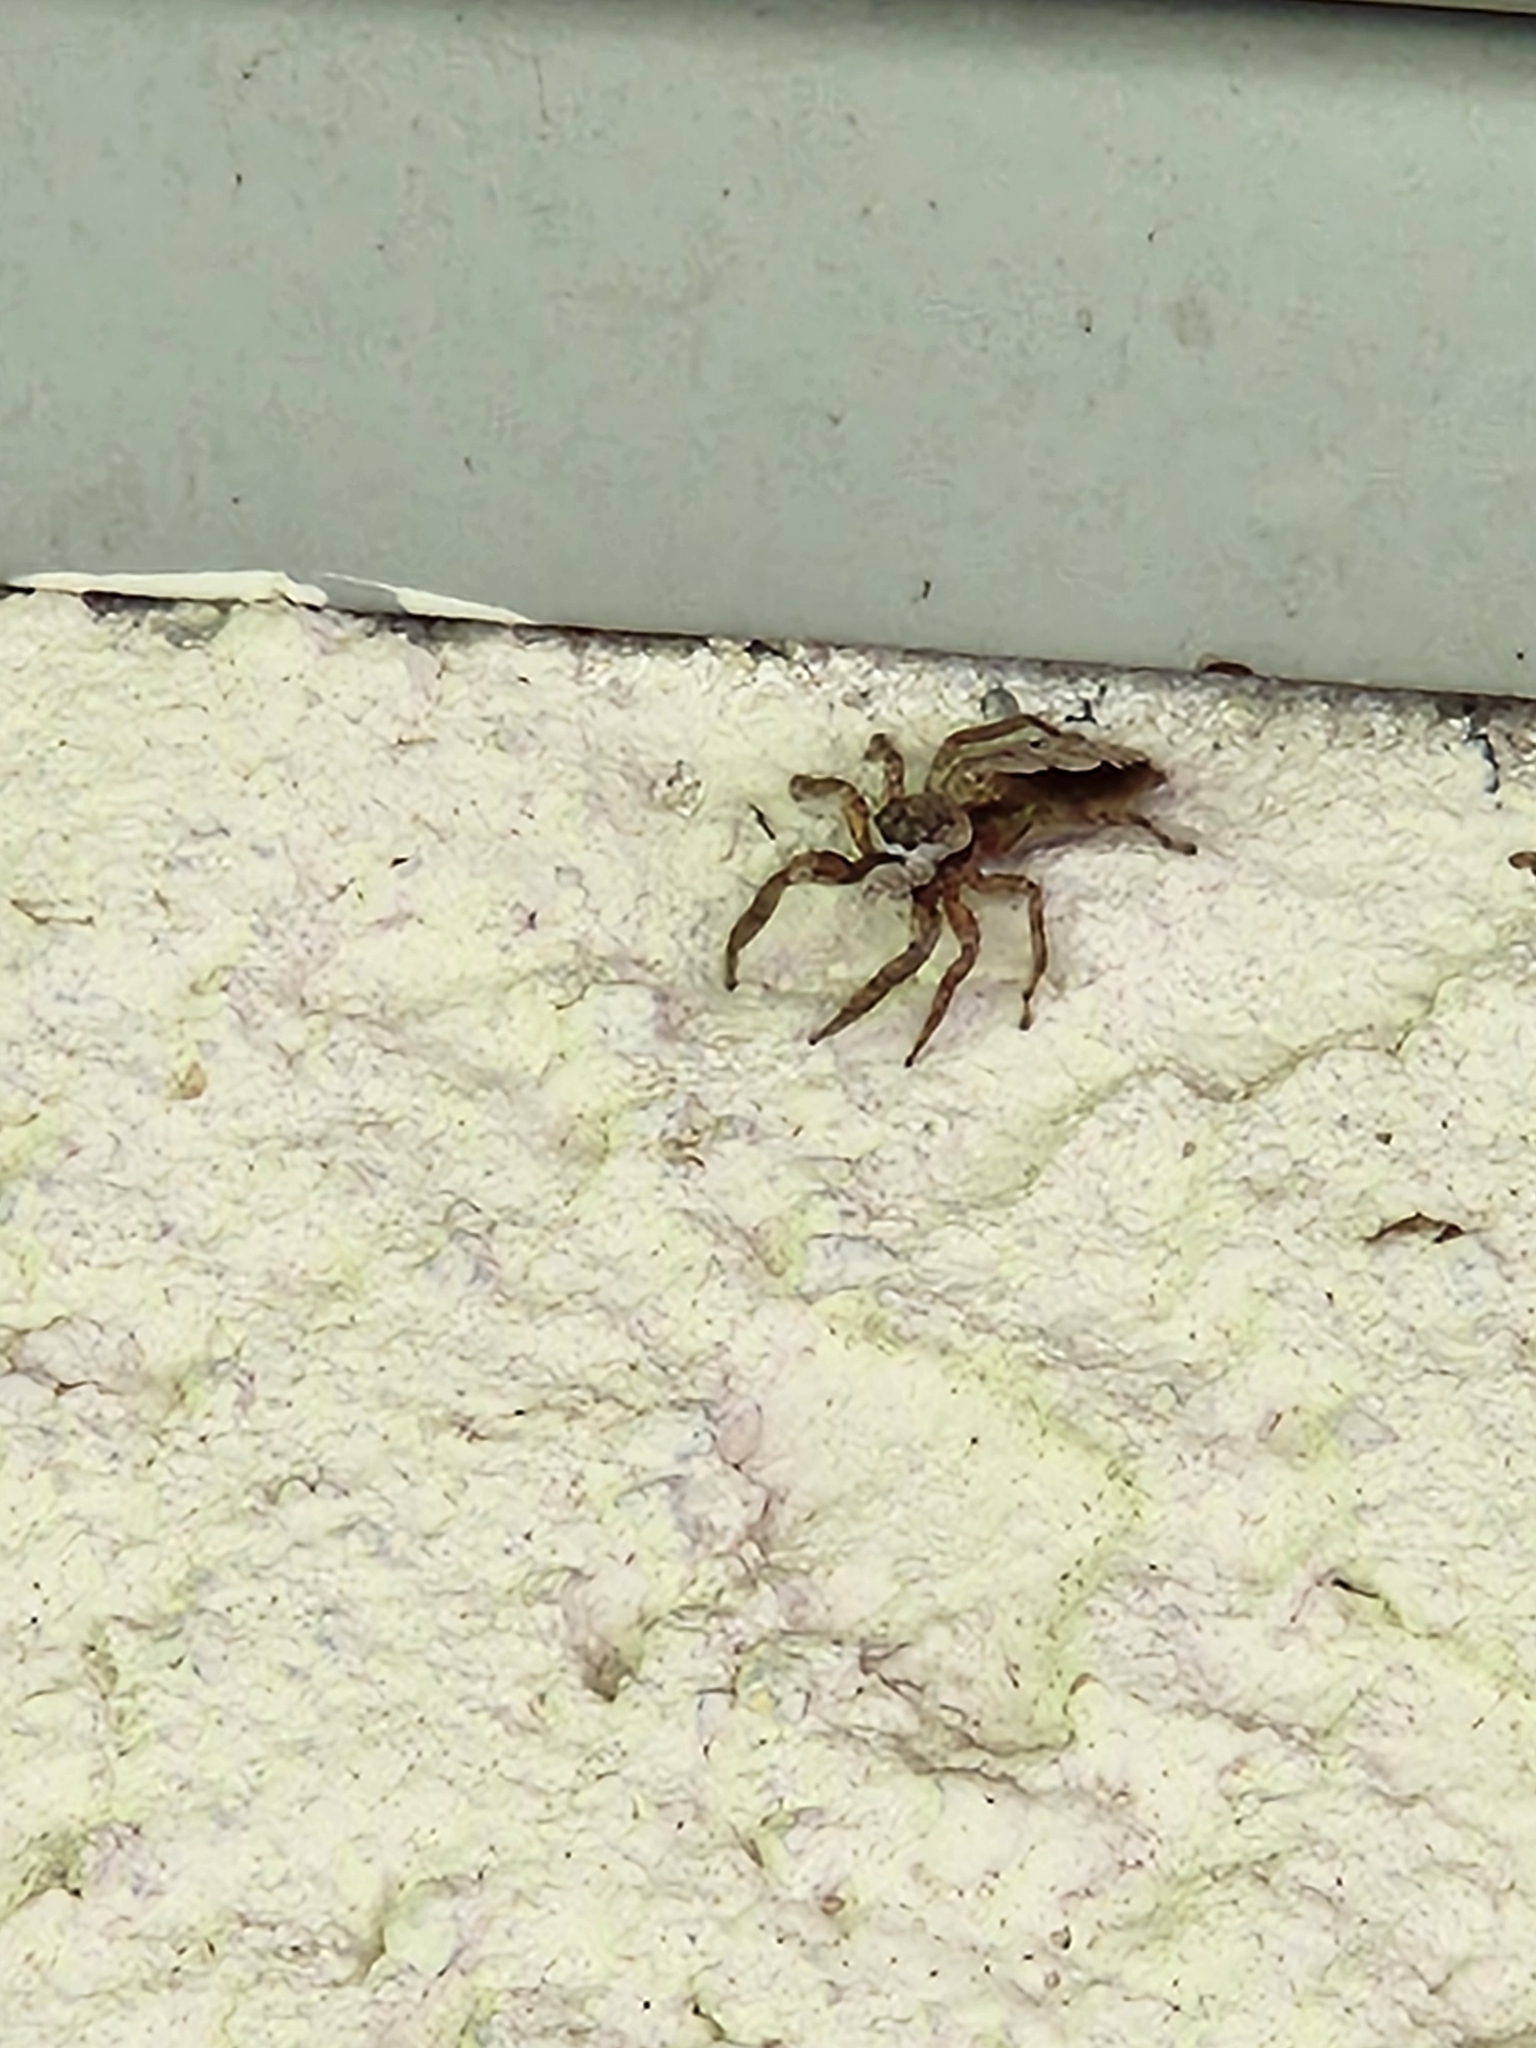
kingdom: Animalia
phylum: Arthropoda
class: Arachnida
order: Araneae
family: Salticidae
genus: Platycryptus
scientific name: Platycryptus undatus
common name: Tan jumping spider
